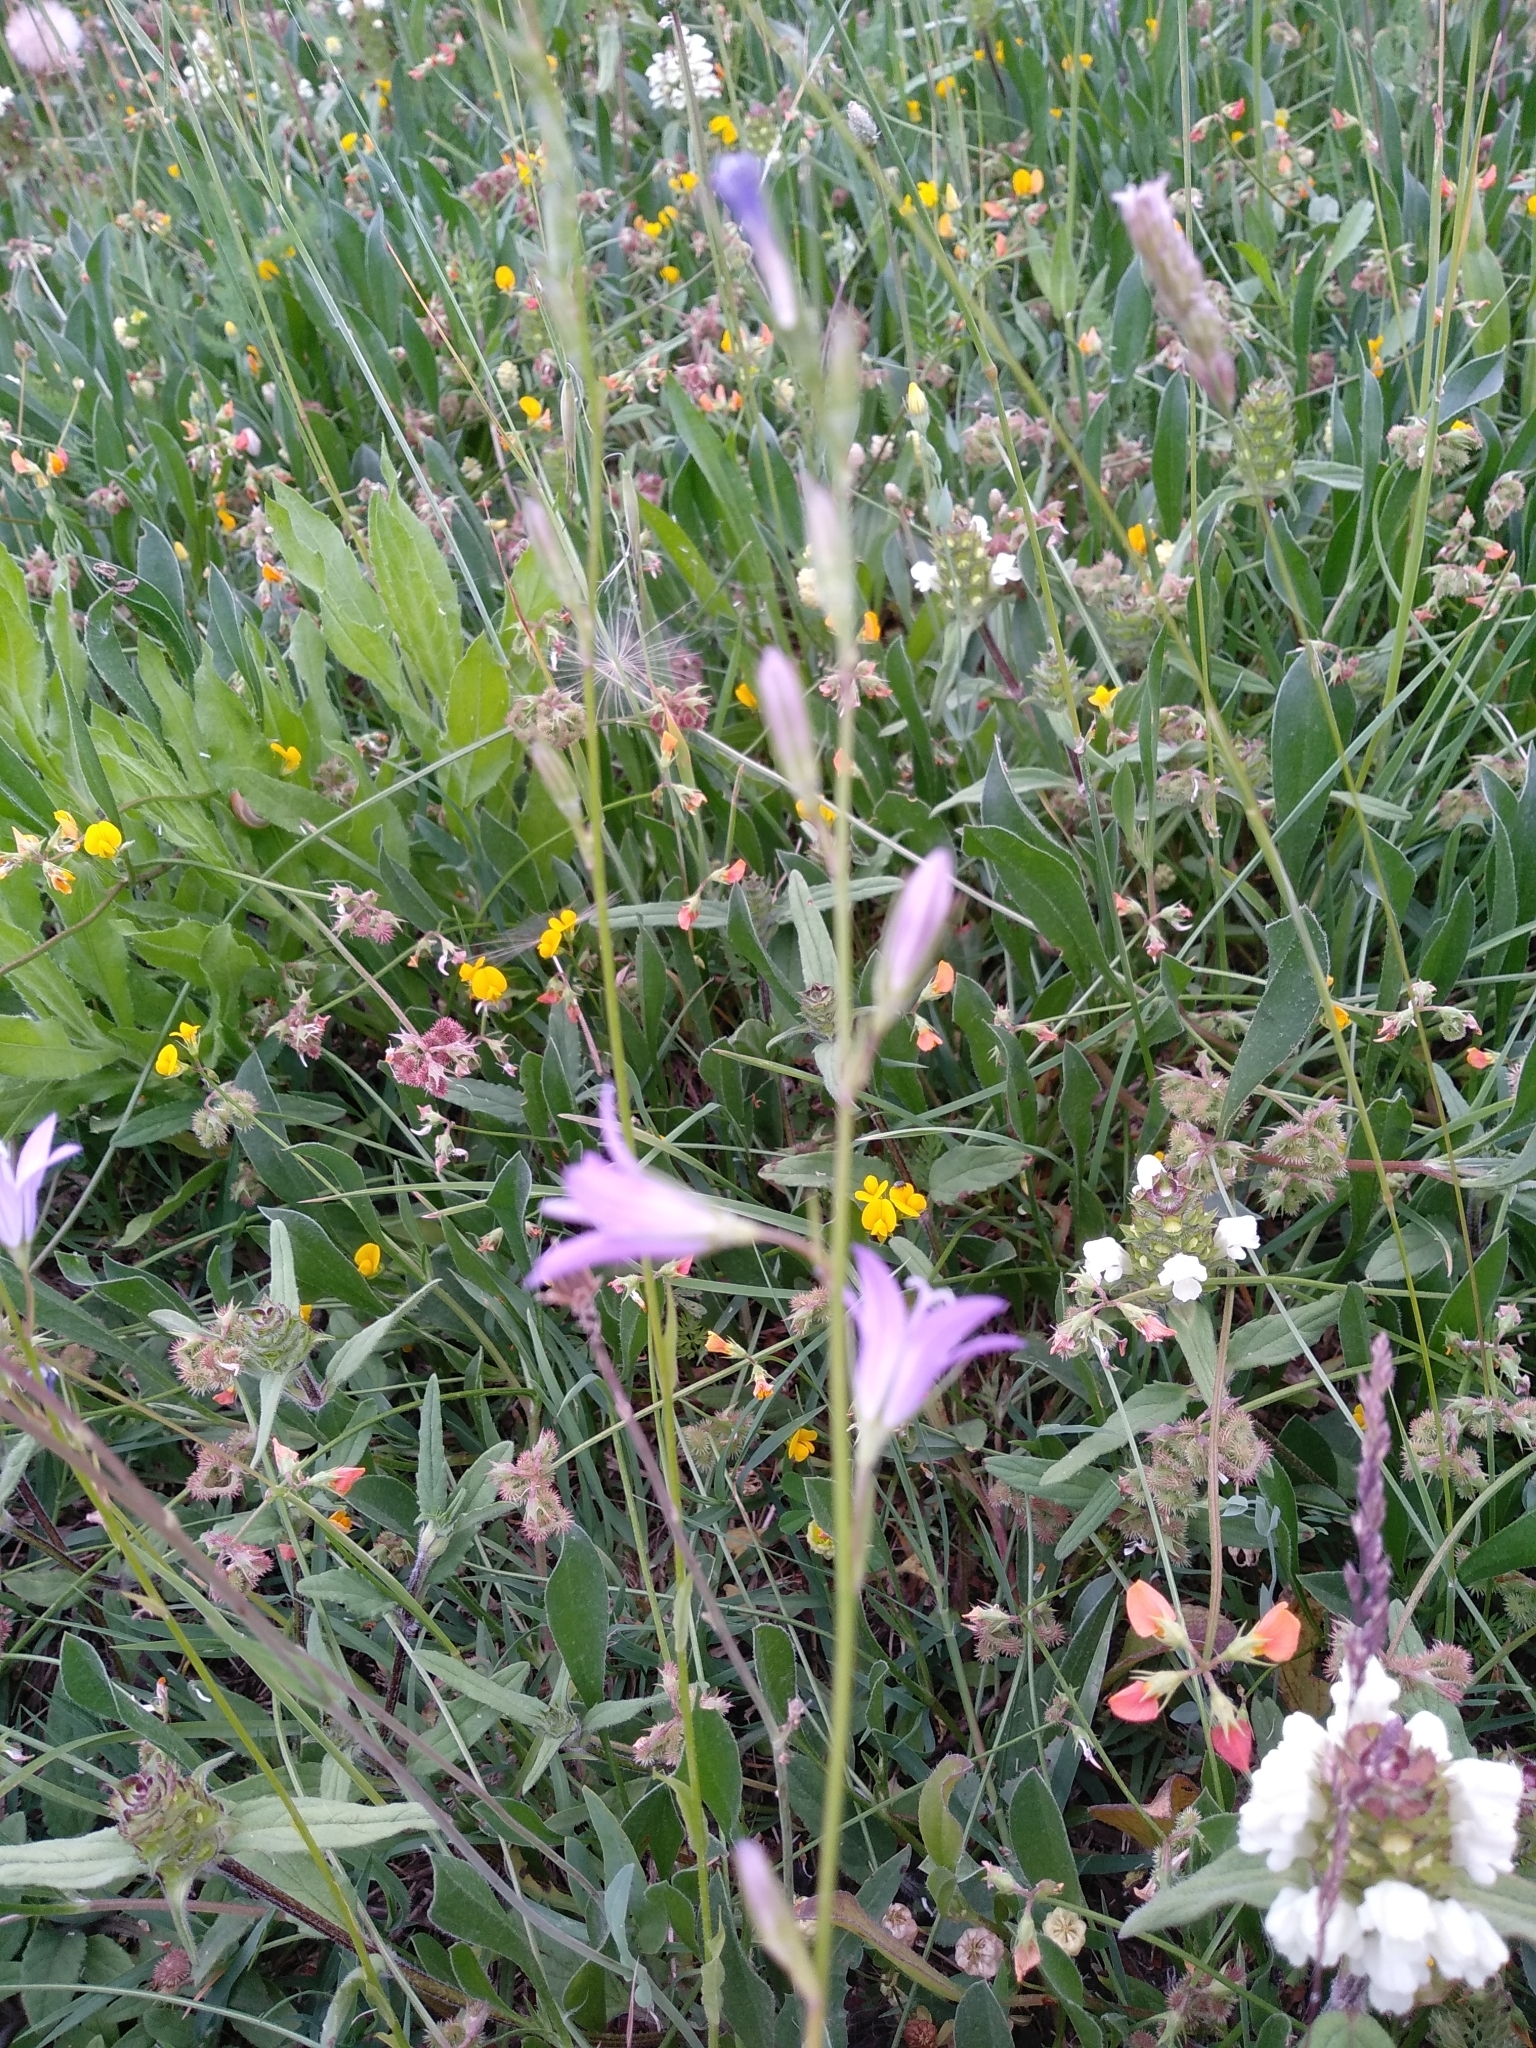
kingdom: Plantae
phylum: Tracheophyta
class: Magnoliopsida
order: Asterales
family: Campanulaceae
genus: Campanula
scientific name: Campanula rapunculus
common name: Rampion bellflower
